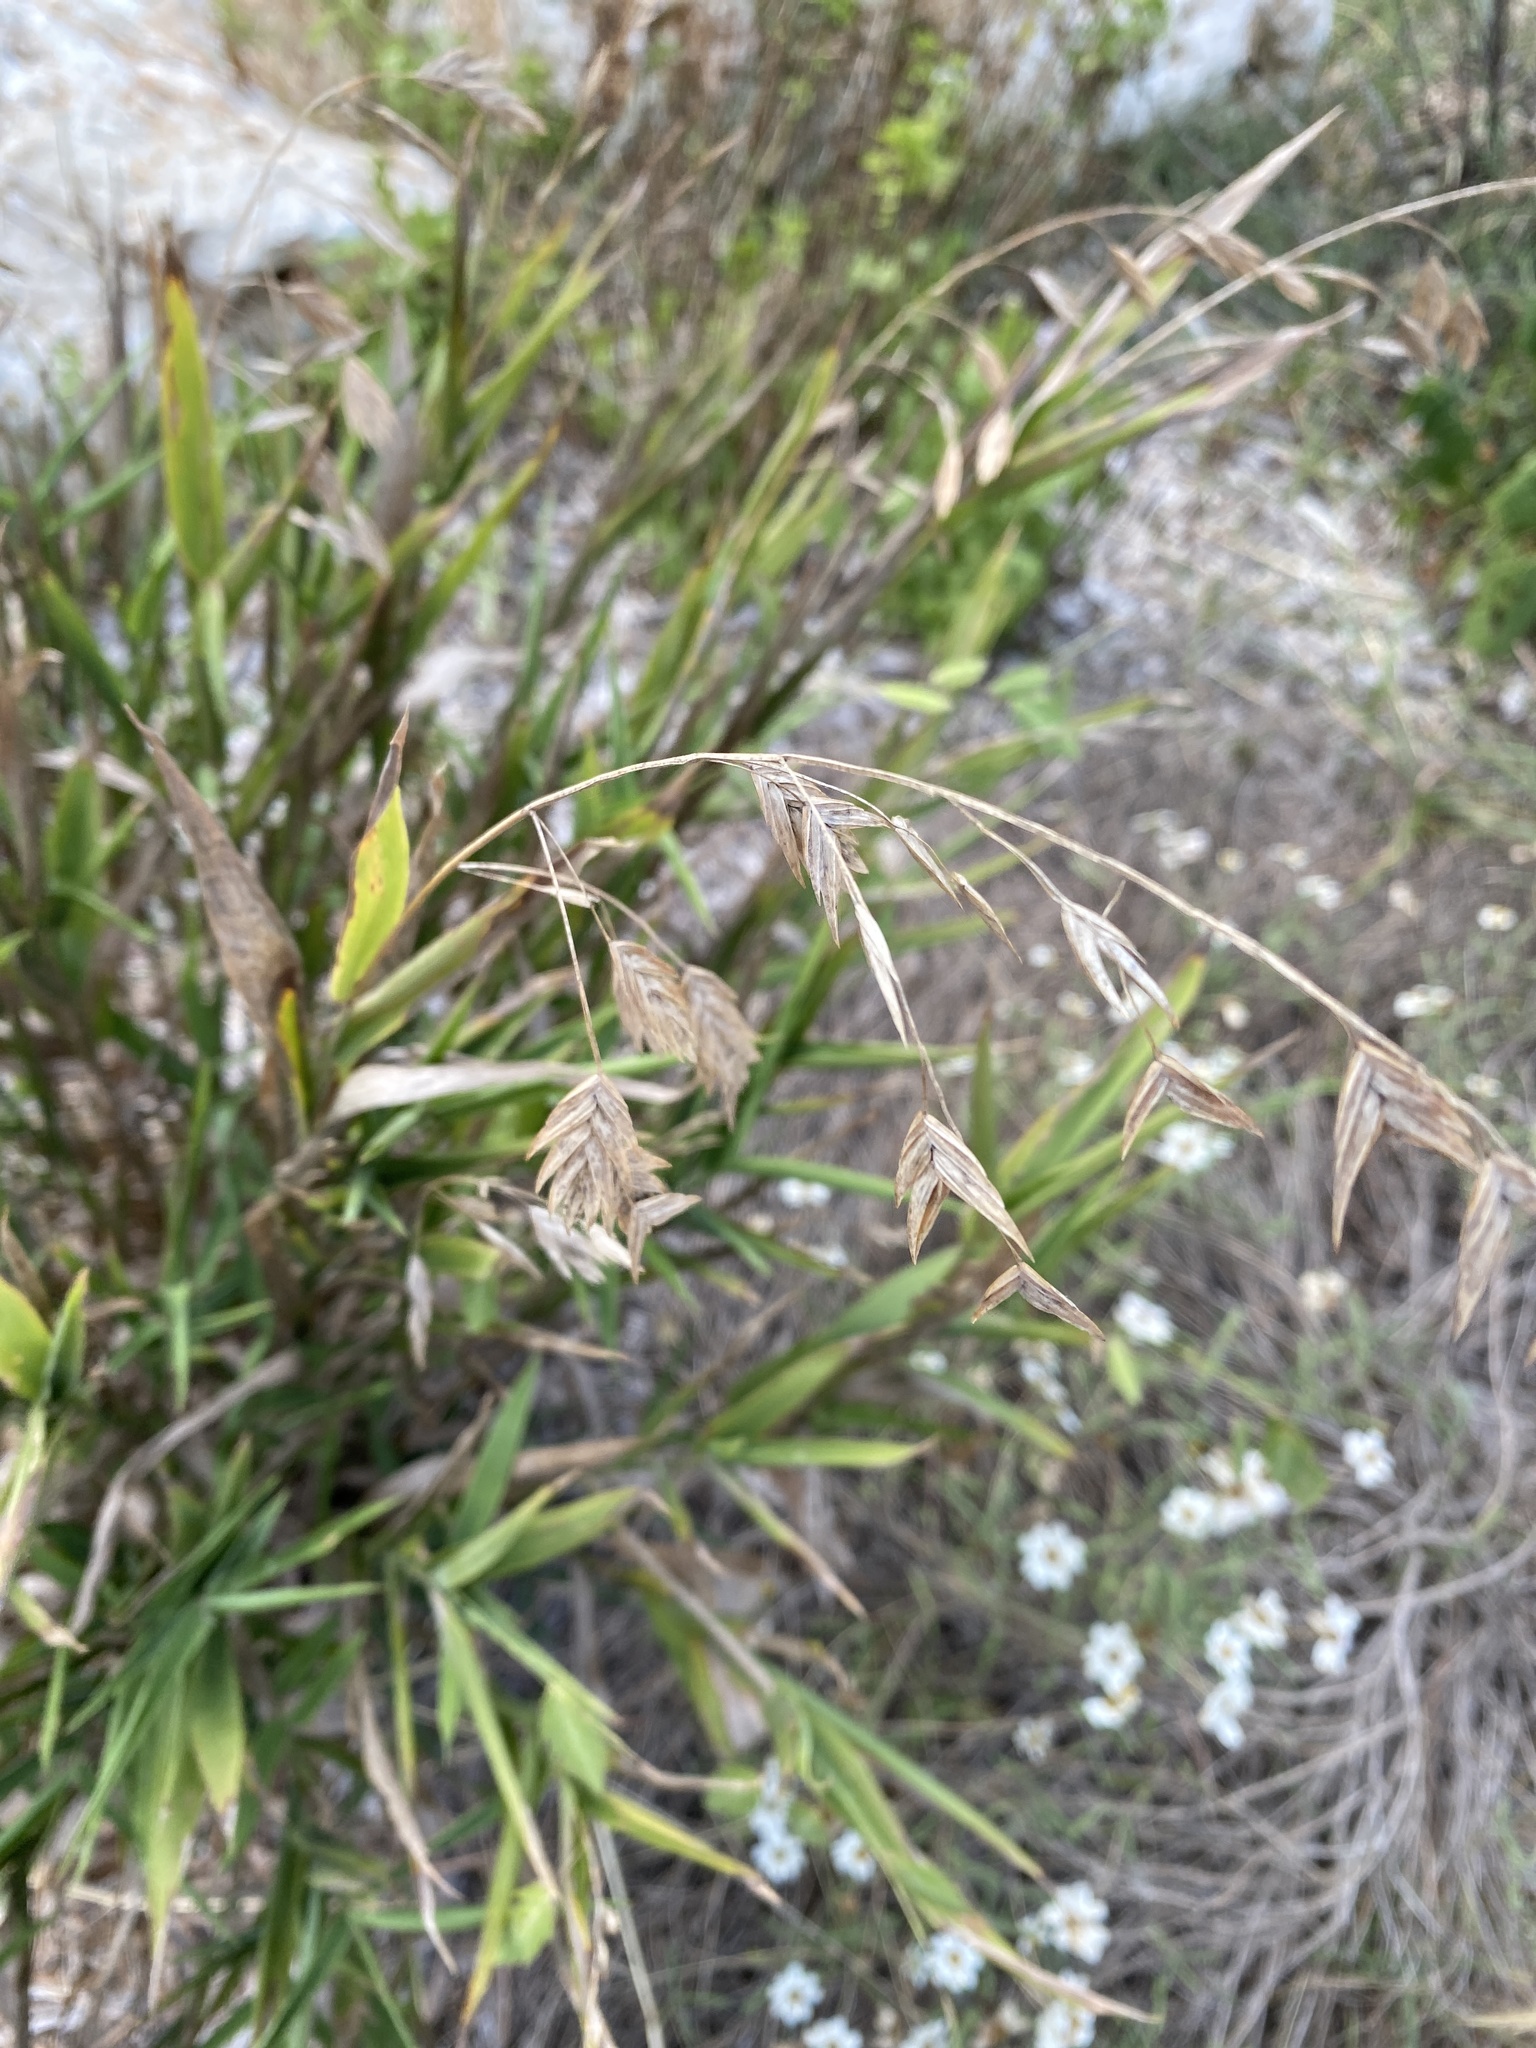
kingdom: Plantae
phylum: Tracheophyta
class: Liliopsida
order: Poales
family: Poaceae
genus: Chasmanthium
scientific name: Chasmanthium latifolium
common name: Broad-leaved chasmanthium
